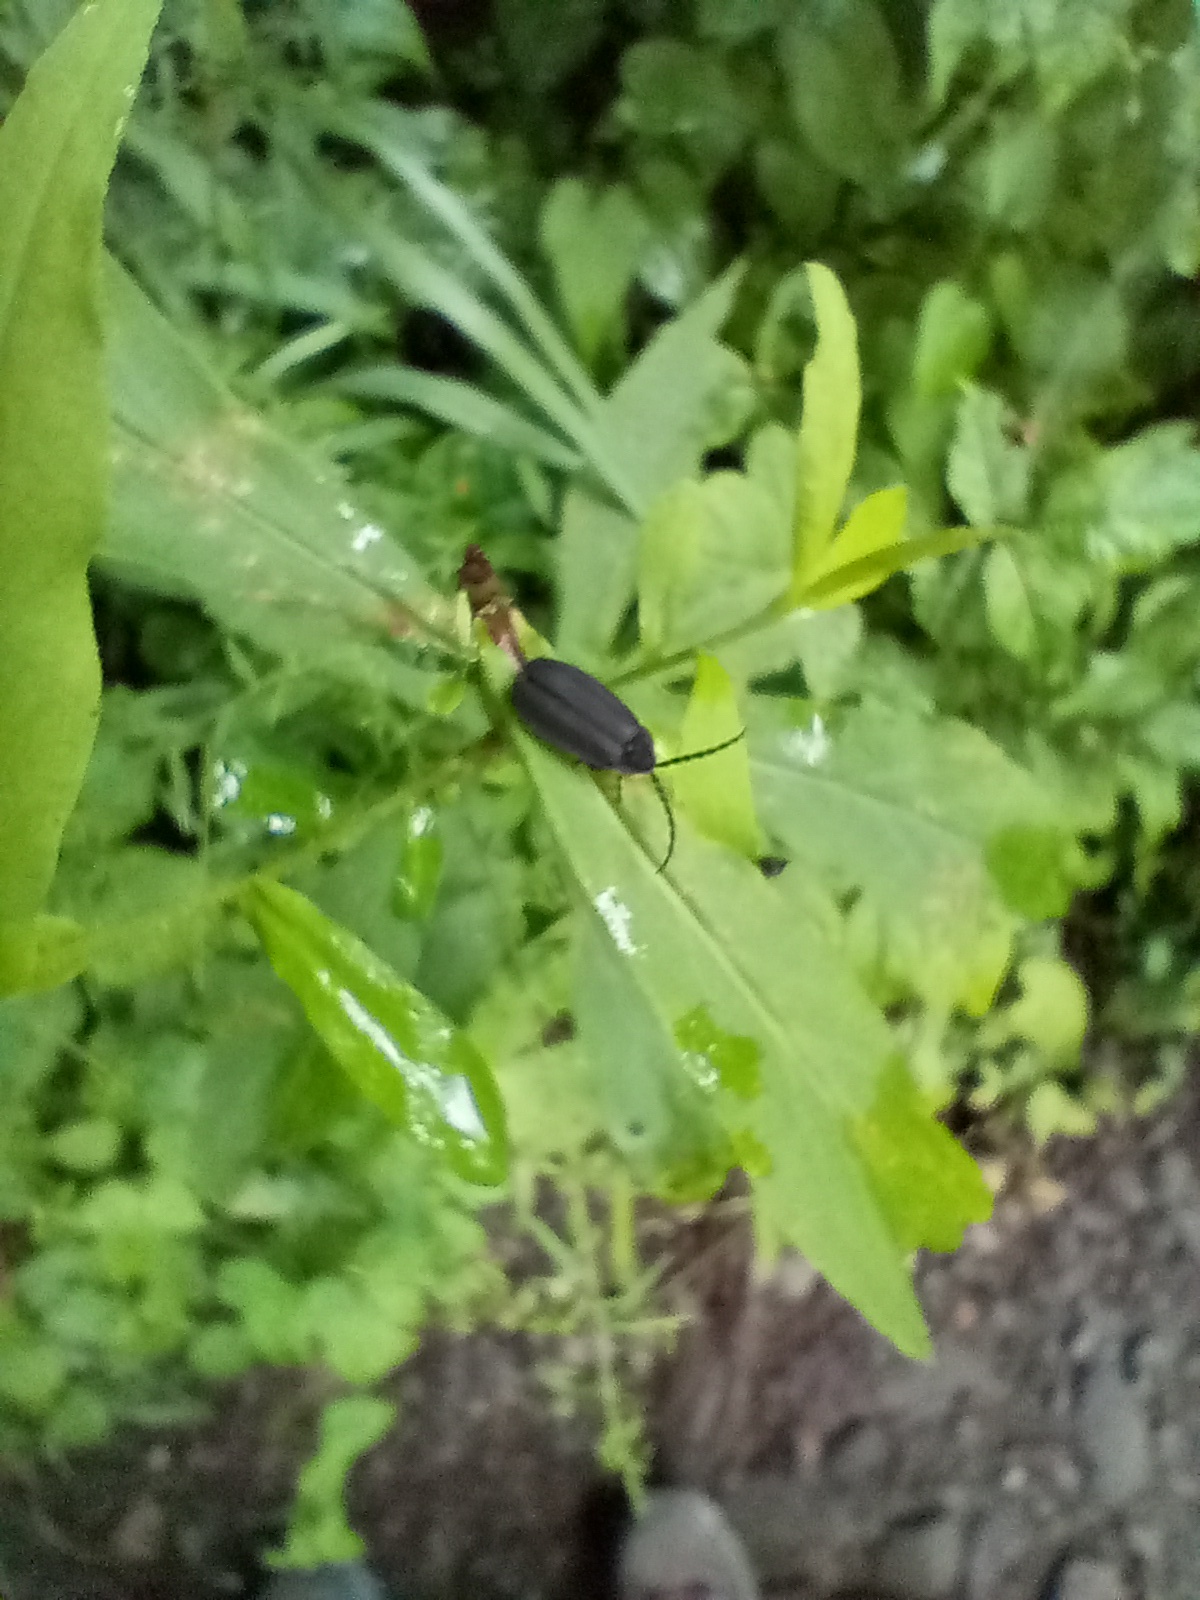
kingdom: Animalia
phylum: Arthropoda
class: Insecta
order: Coleoptera
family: Lampyridae
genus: Lucidota
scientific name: Lucidota atra
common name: Black firefly
